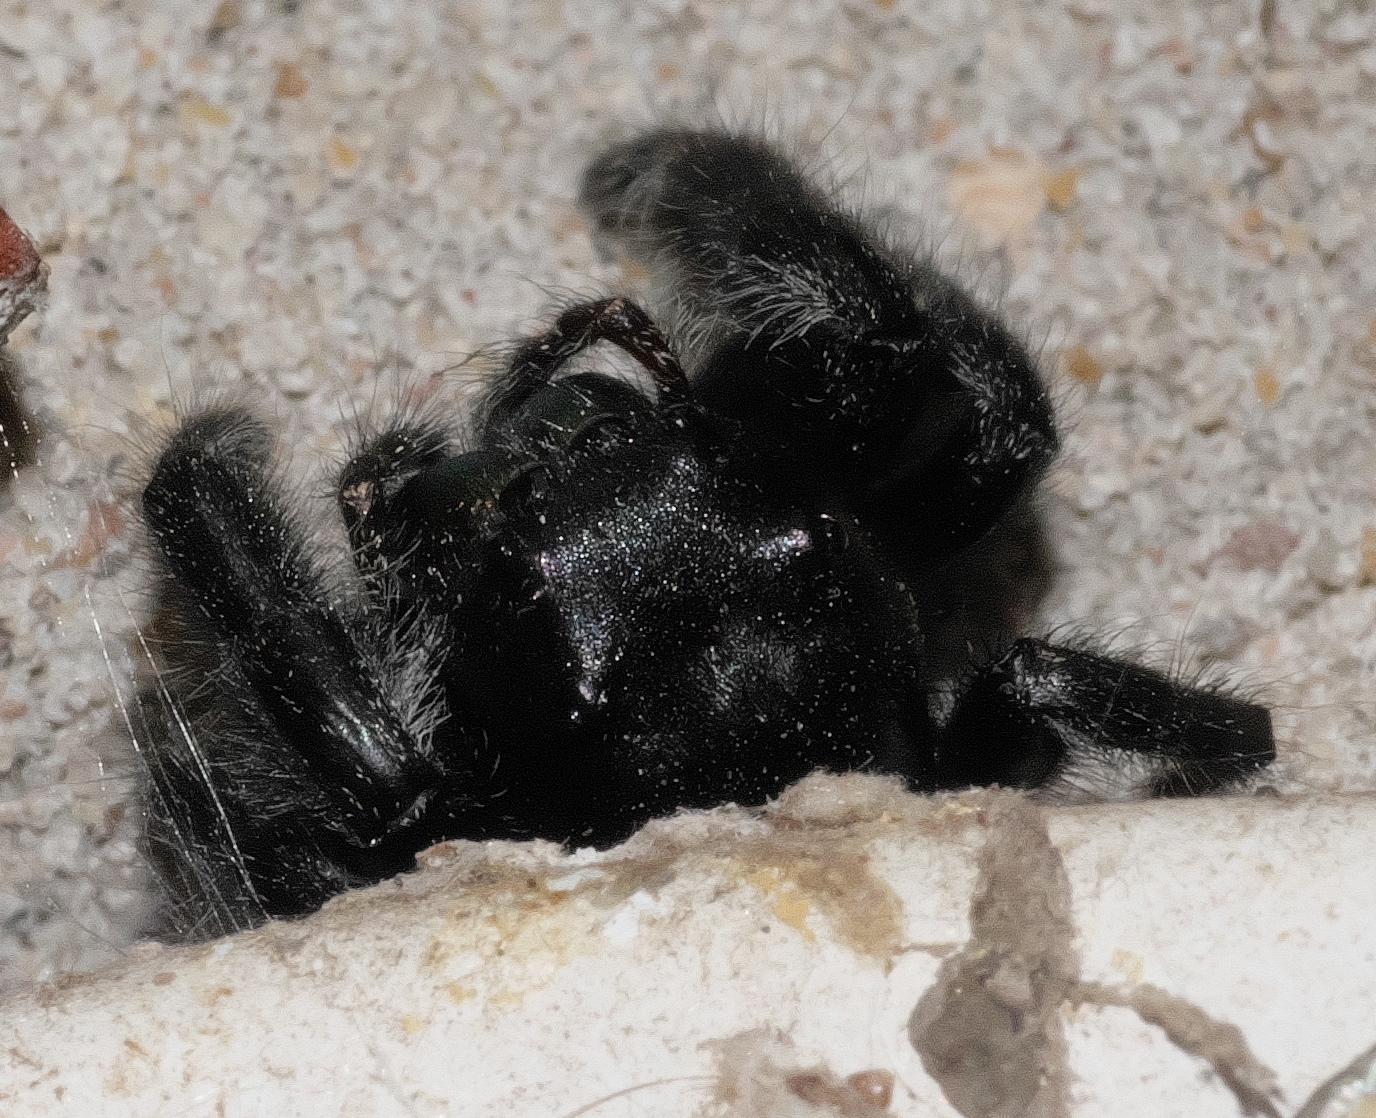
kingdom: Animalia
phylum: Arthropoda
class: Arachnida
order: Araneae
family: Salticidae
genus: Phidippus
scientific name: Phidippus audax
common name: Bold jumper
